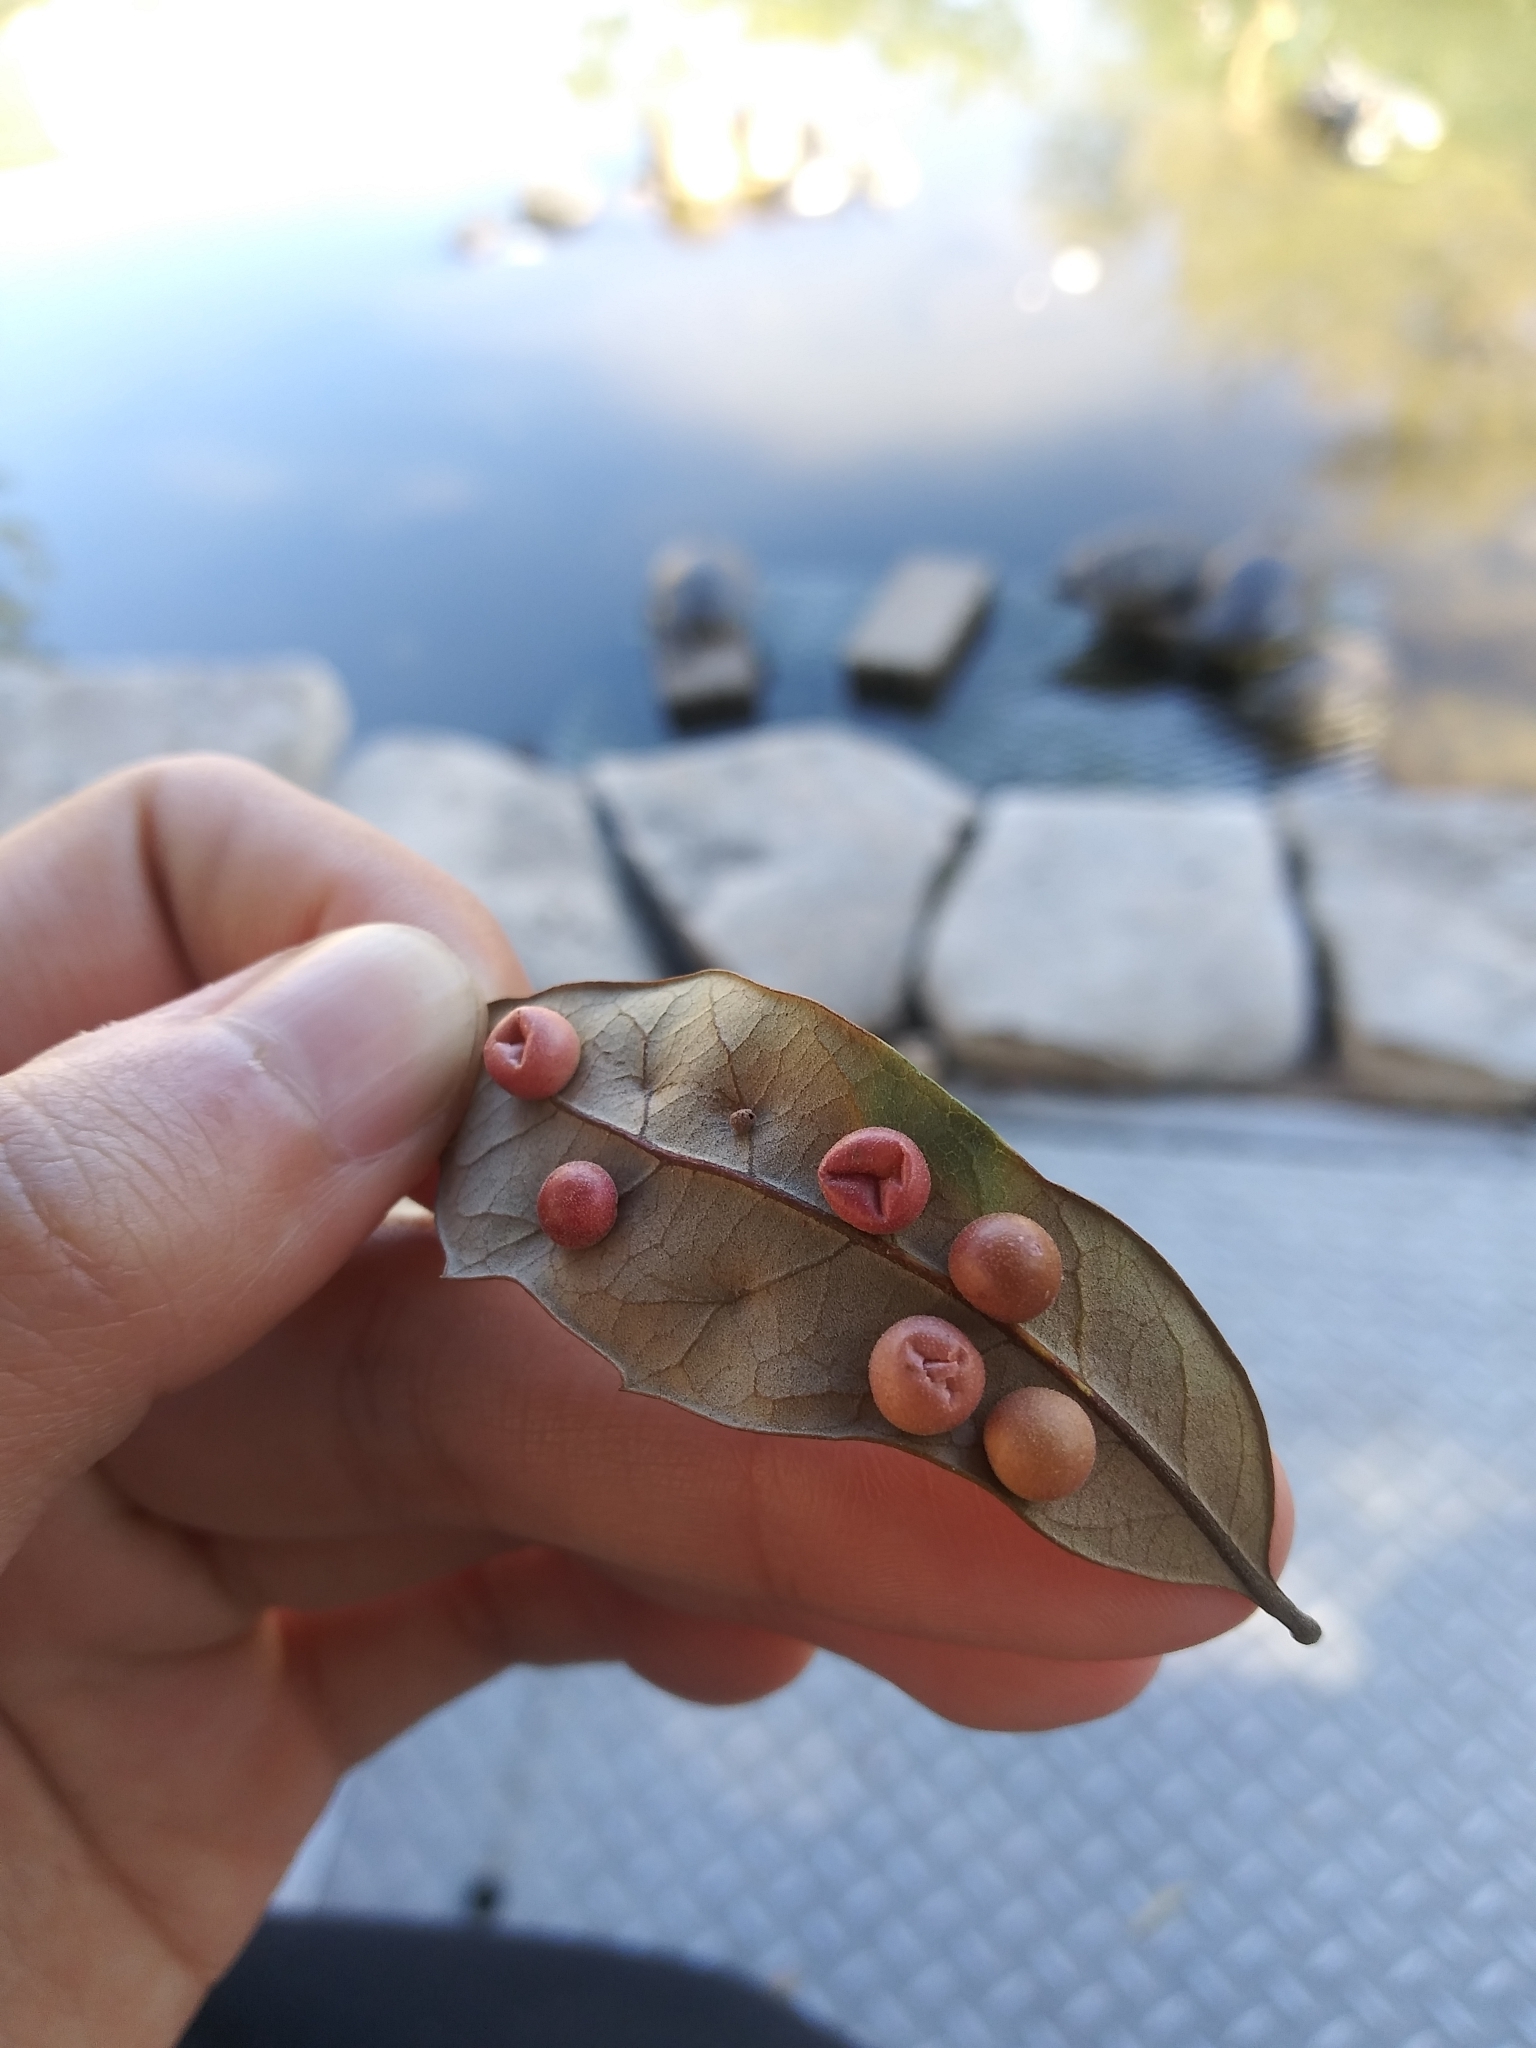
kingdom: Animalia
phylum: Arthropoda
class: Insecta
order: Hymenoptera
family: Cynipidae
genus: Belonocnema
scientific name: Belonocnema kinseyi
